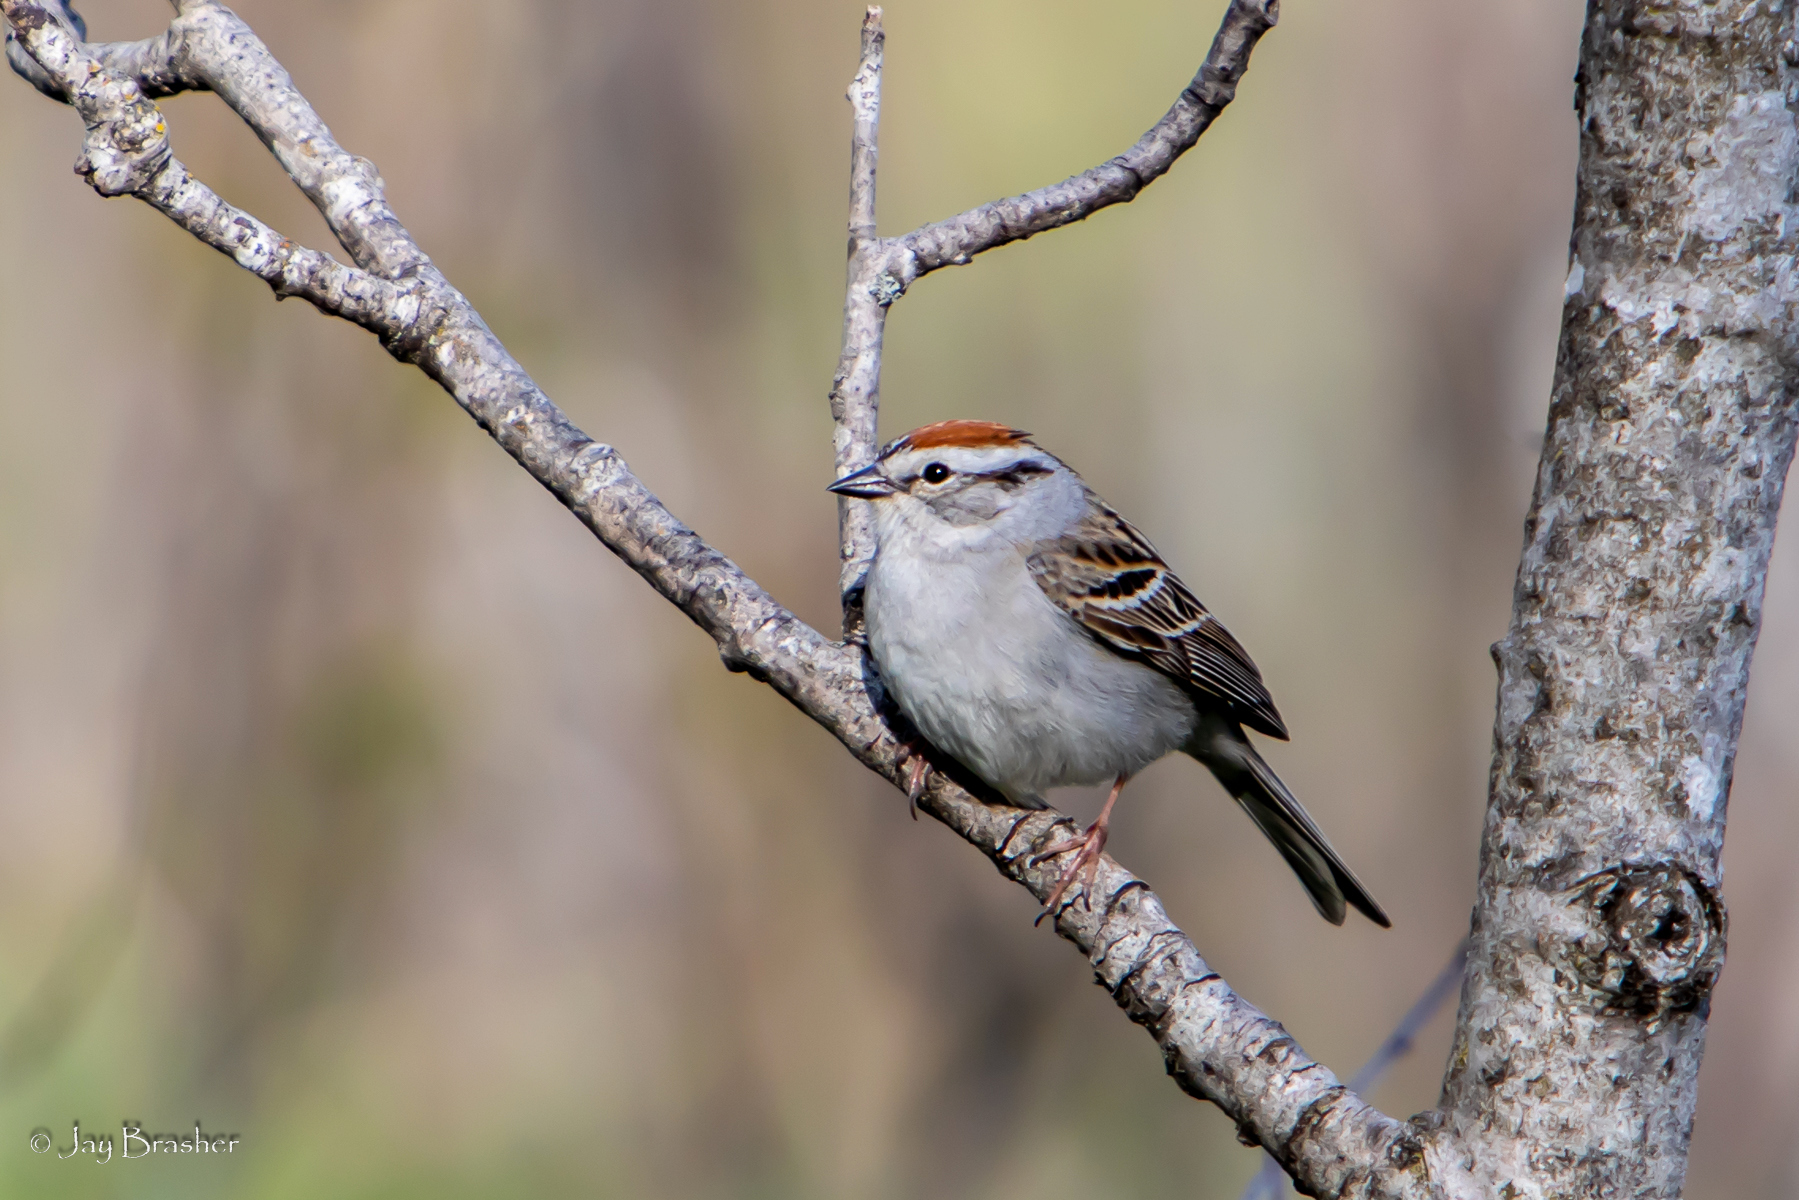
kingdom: Animalia
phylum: Chordata
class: Aves
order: Passeriformes
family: Passerellidae
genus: Spizella
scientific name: Spizella passerina
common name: Chipping sparrow
